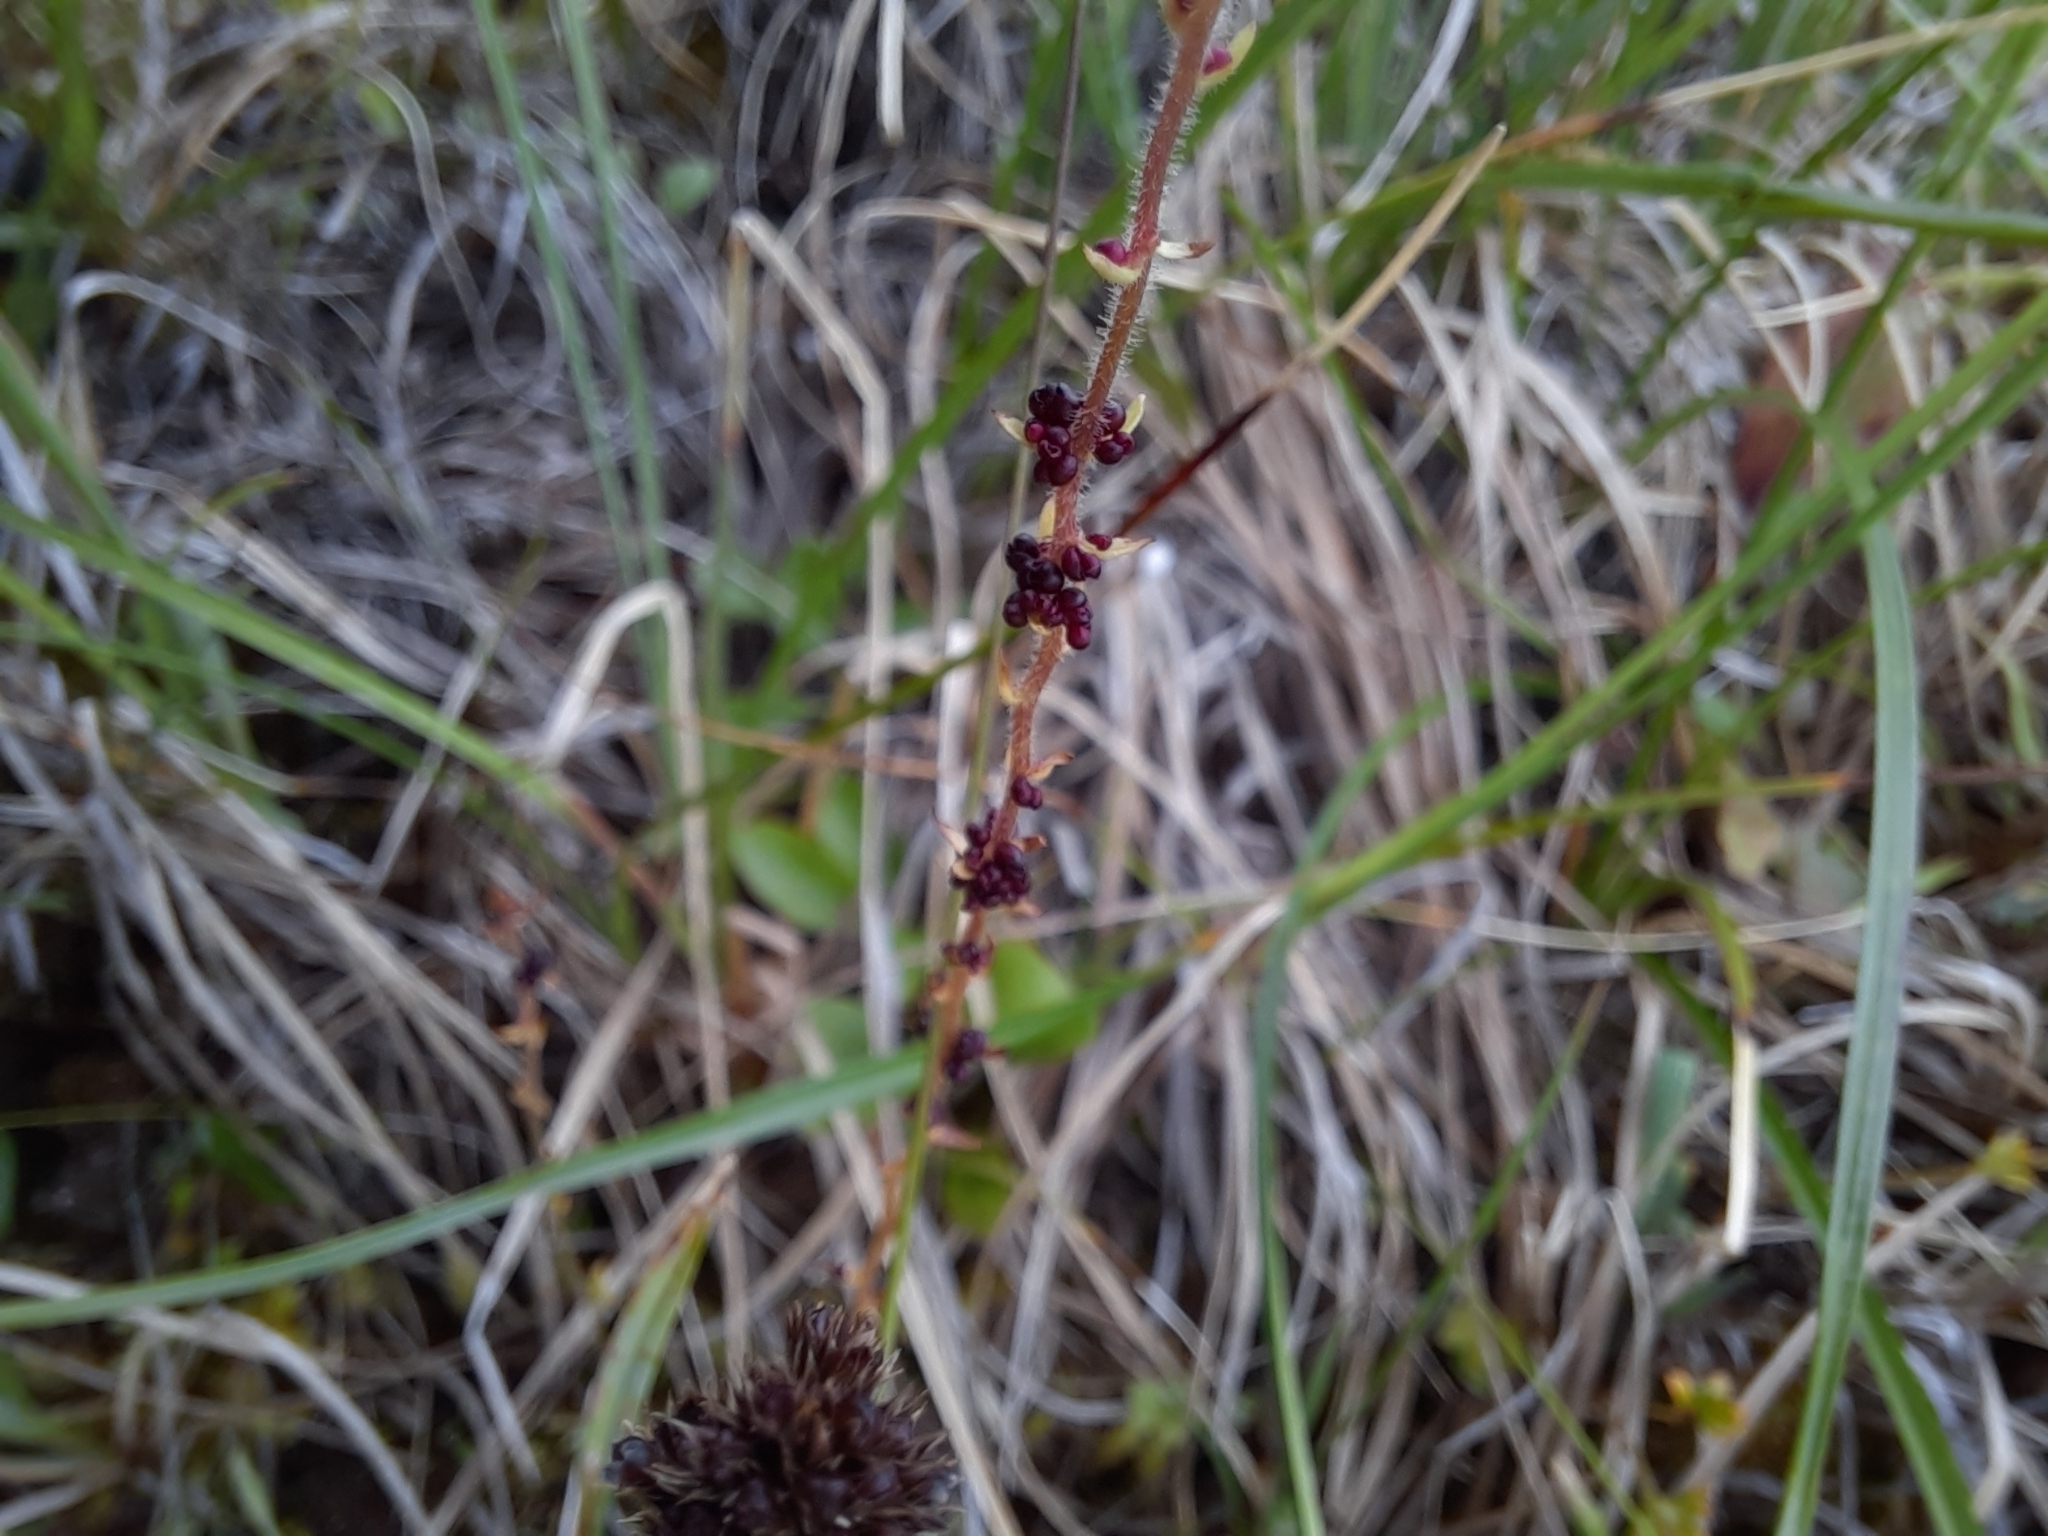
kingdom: Plantae
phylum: Tracheophyta
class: Magnoliopsida
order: Saxifragales
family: Saxifragaceae
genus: Saxifraga
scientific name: Saxifraga cernua
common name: Drooping saxifrage
